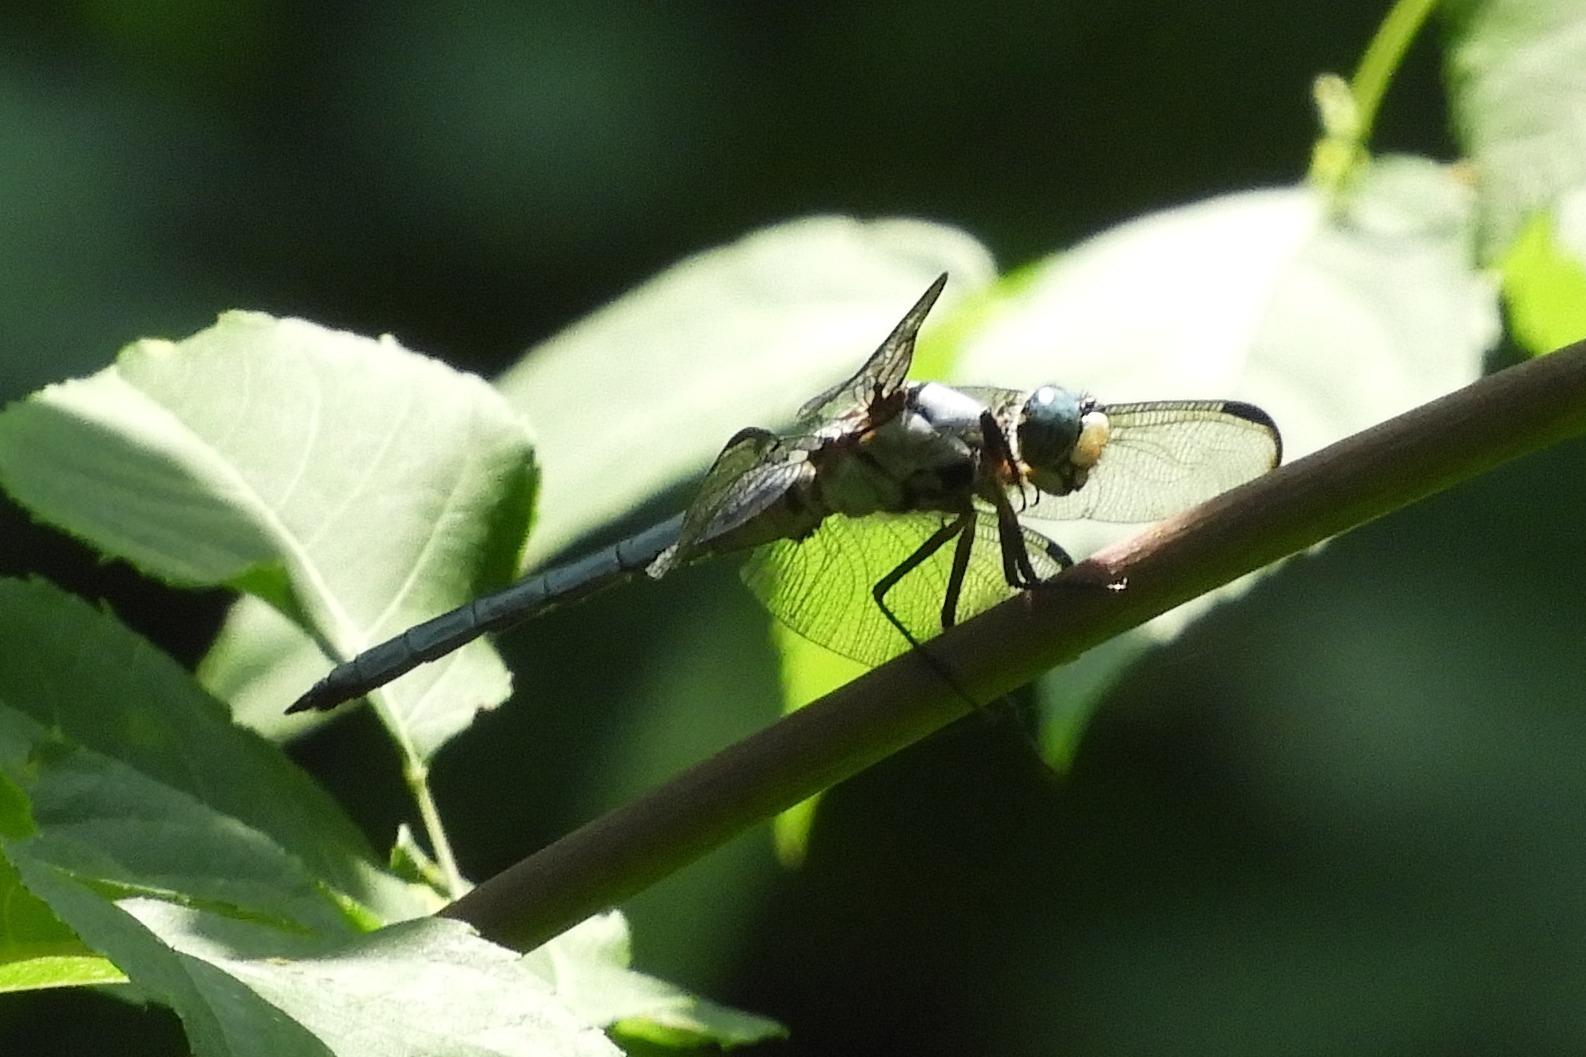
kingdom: Animalia
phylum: Arthropoda
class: Insecta
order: Odonata
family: Libellulidae
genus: Libellula
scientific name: Libellula vibrans
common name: Great blue skimmer
